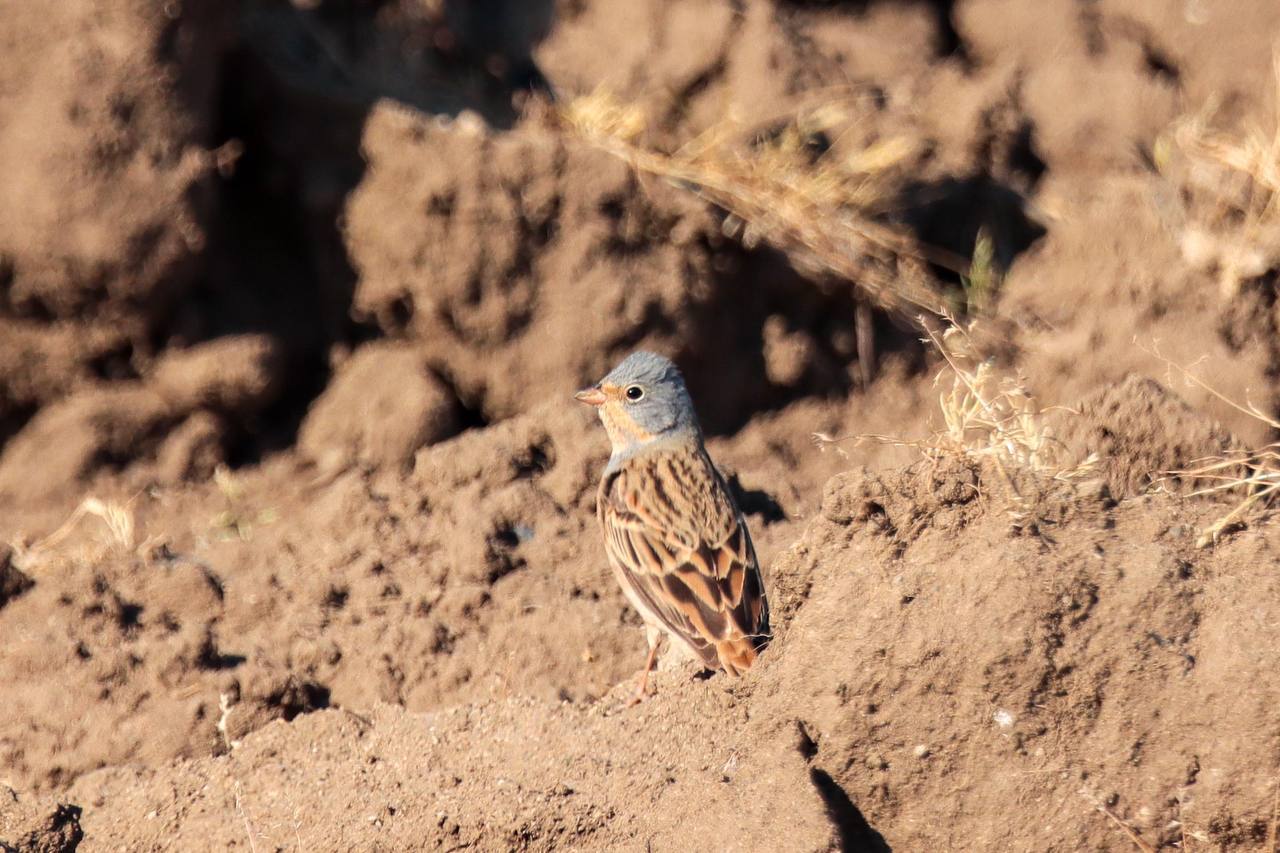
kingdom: Animalia
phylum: Chordata
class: Aves
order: Passeriformes
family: Emberizidae
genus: Emberiza
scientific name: Emberiza caesia
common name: Cretzschmar's bunting
